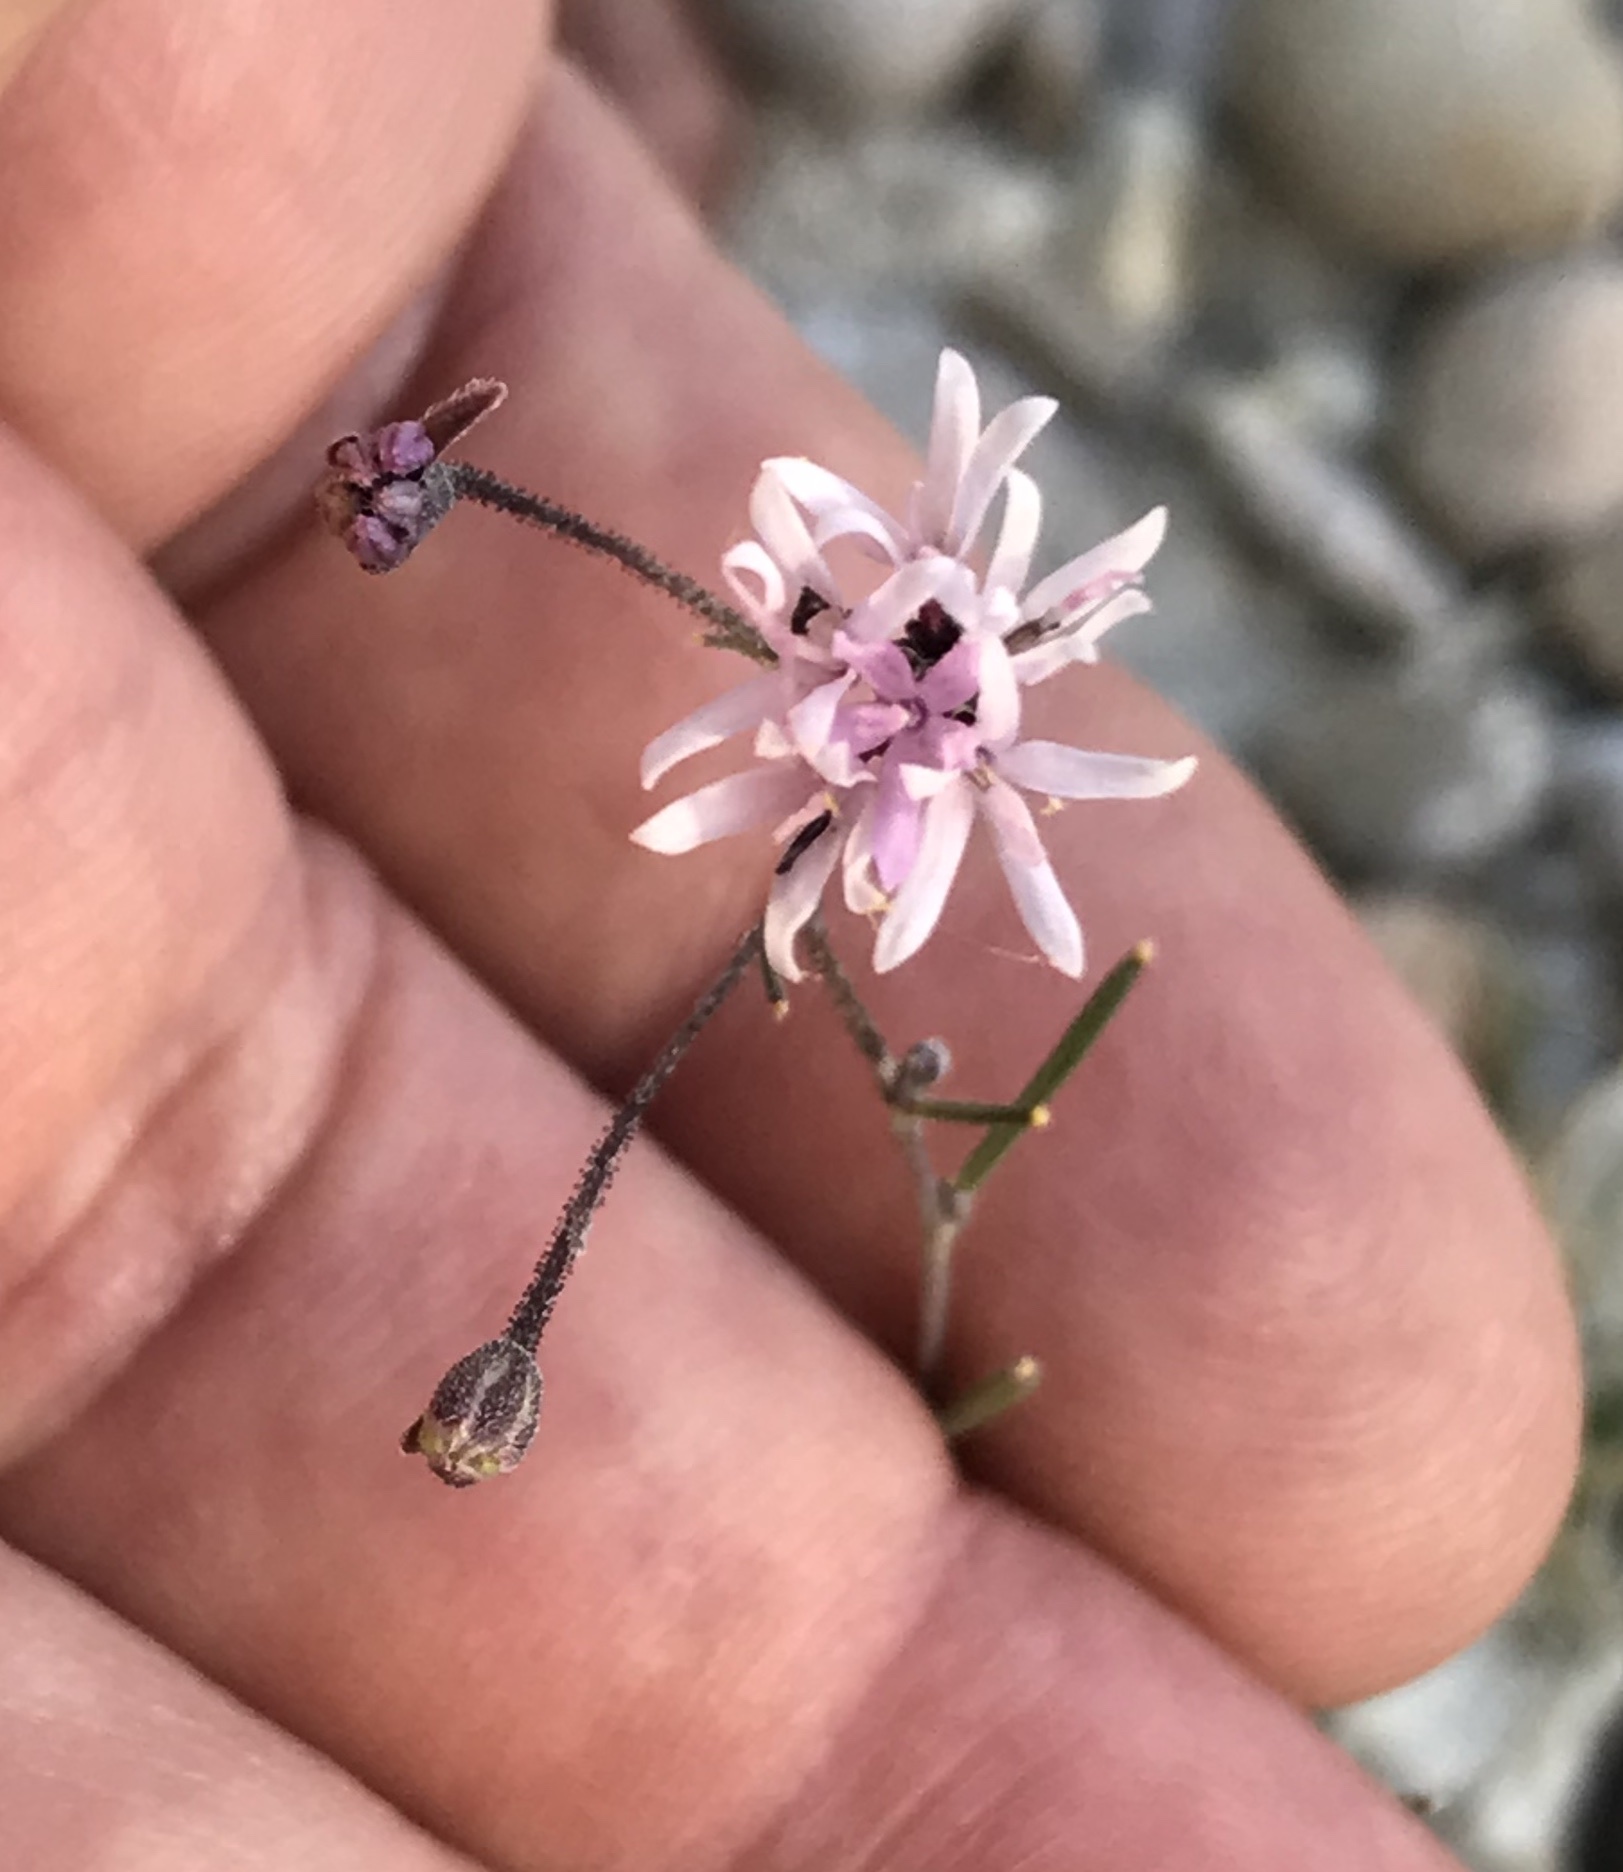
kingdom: Plantae
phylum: Tracheophyta
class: Magnoliopsida
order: Asterales
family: Asteraceae
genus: Palafoxia
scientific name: Palafoxia callosa
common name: Small palafox
